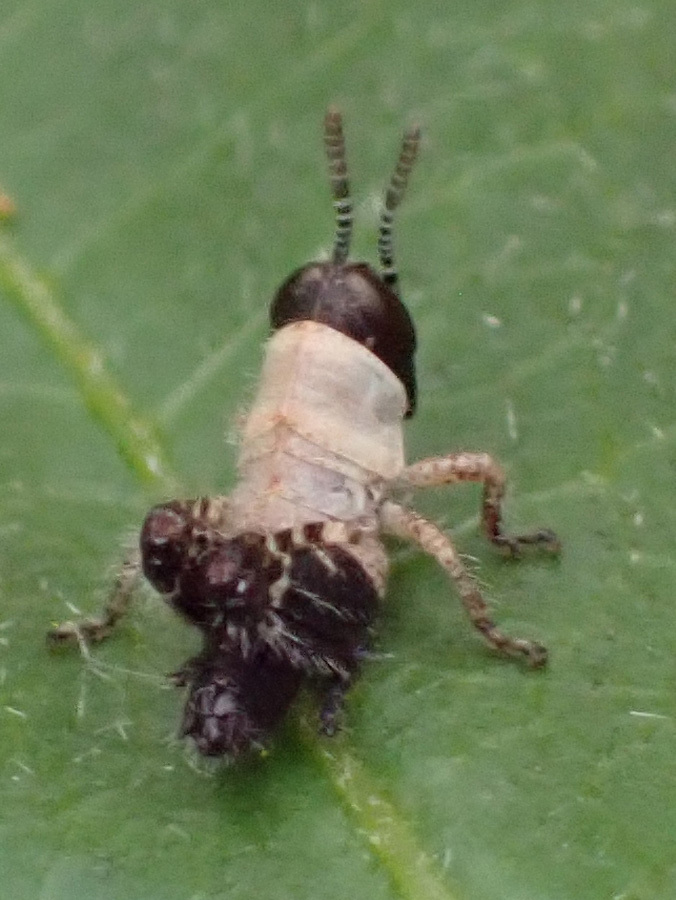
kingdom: Animalia
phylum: Arthropoda
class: Insecta
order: Orthoptera
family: Acrididae
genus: Calliptamus
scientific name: Calliptamus italicus
